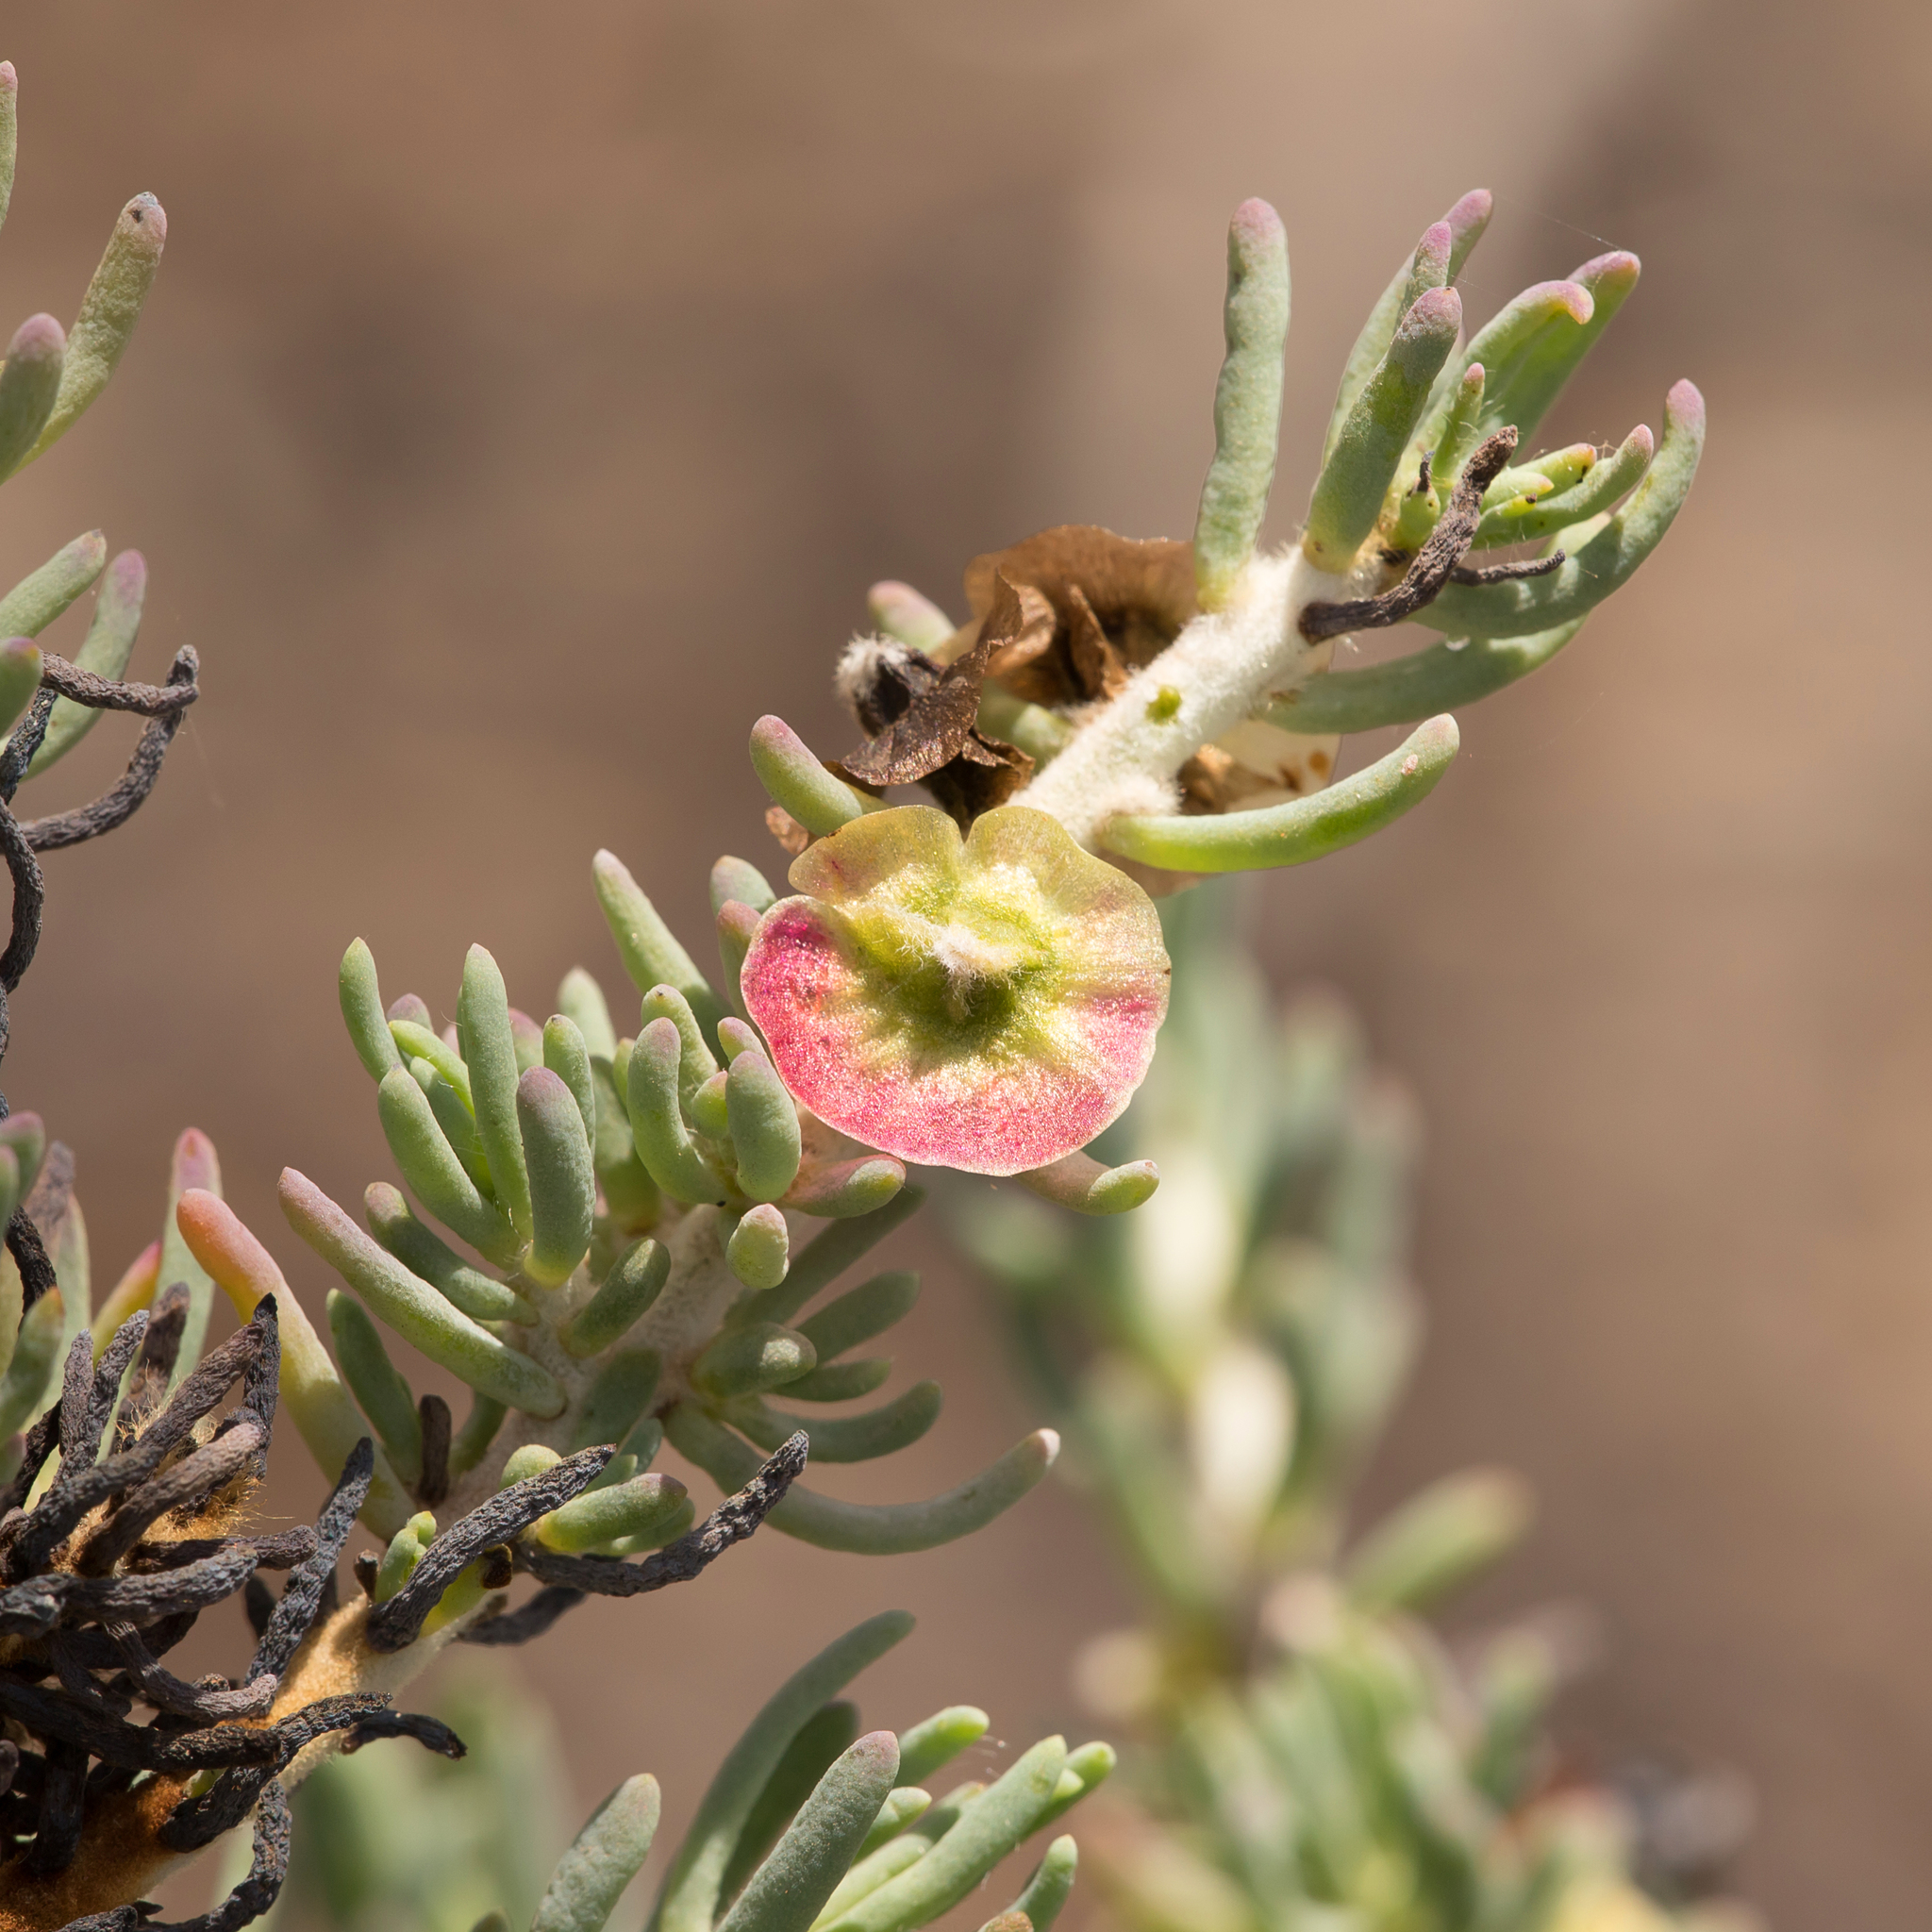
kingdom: Plantae
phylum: Tracheophyta
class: Magnoliopsida
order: Caryophyllales
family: Amaranthaceae
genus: Maireana
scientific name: Maireana pentatropis
